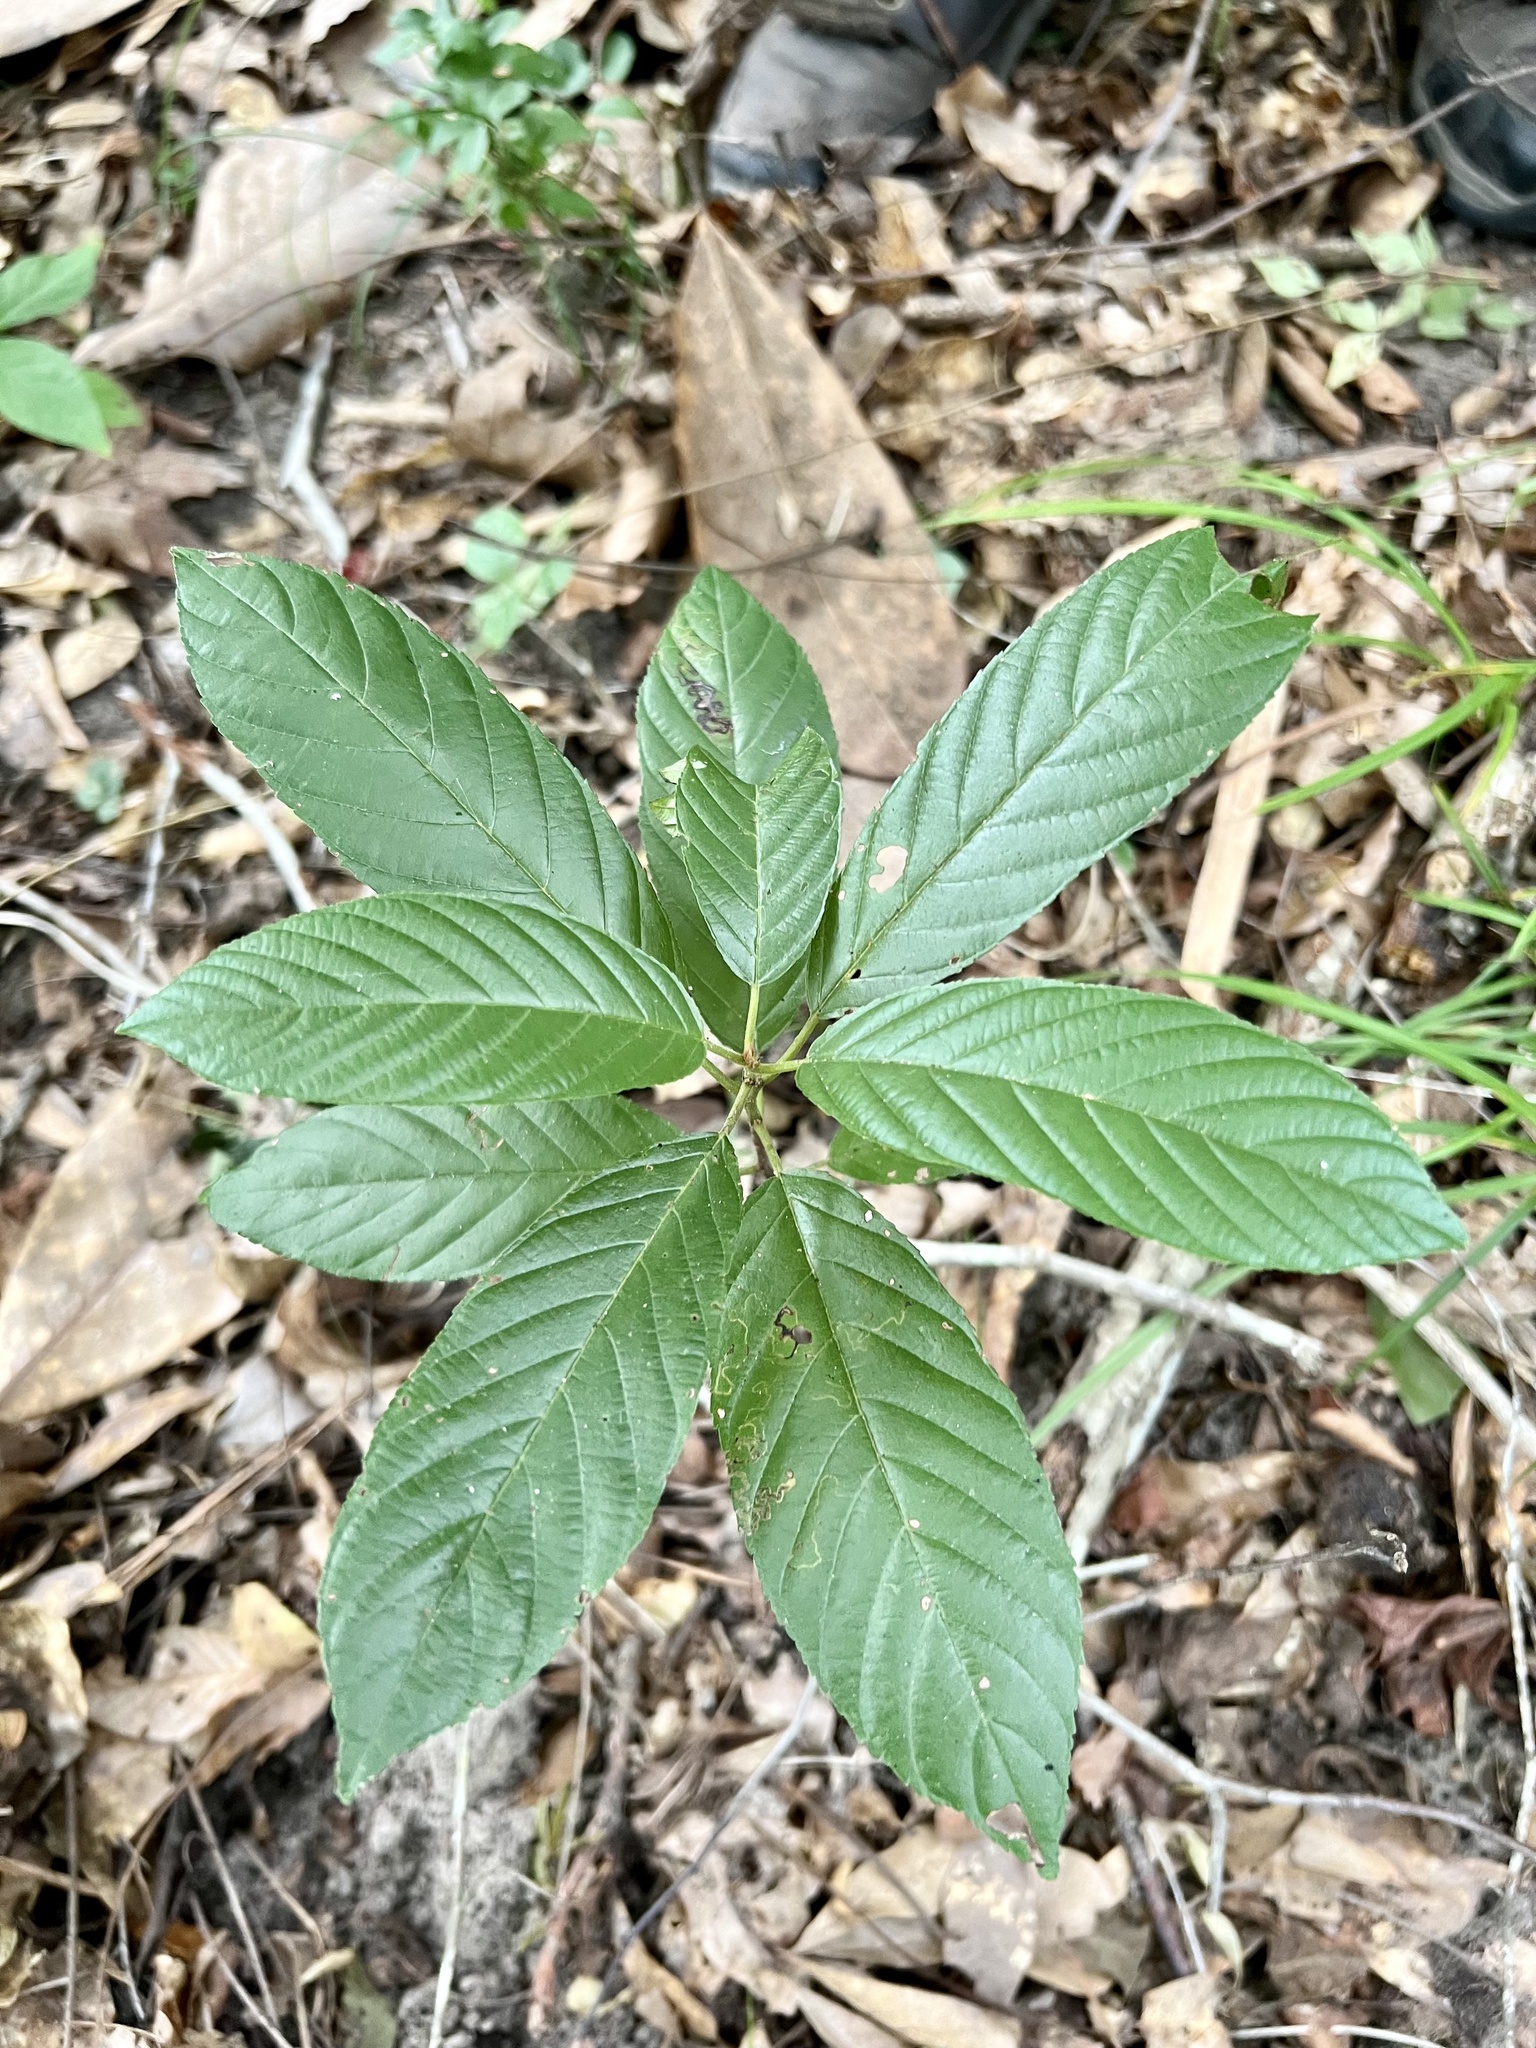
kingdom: Plantae
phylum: Tracheophyta
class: Magnoliopsida
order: Rosales
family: Rhamnaceae
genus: Frangula
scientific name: Frangula caroliniana
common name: Carolina buckthorn
